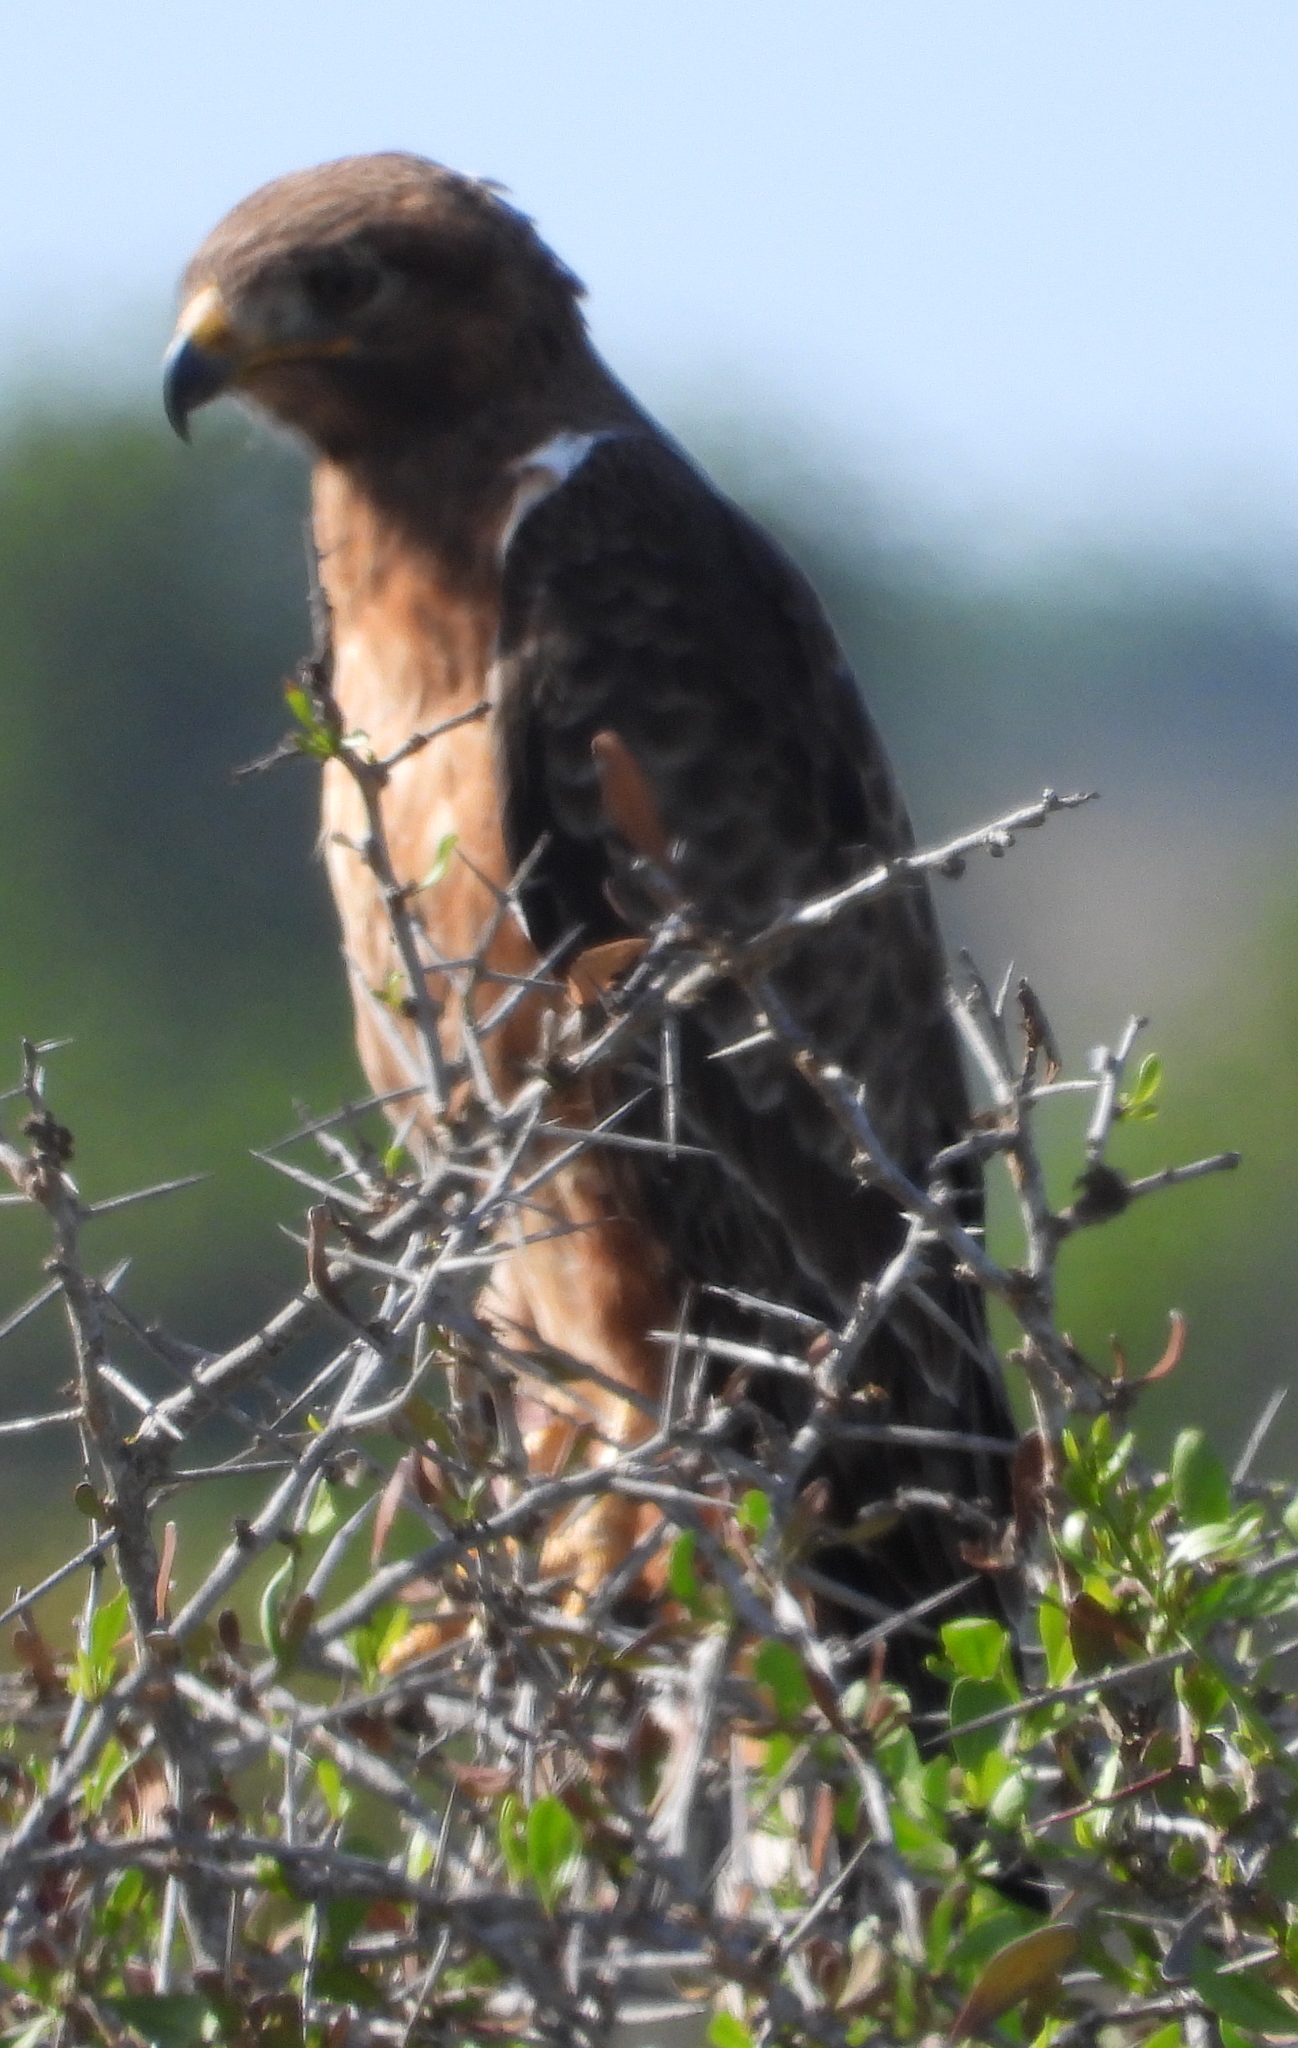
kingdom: Animalia
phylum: Chordata
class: Aves
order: Accipitriformes
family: Accipitridae
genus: Buteo
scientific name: Buteo buteo
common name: Common buzzard
